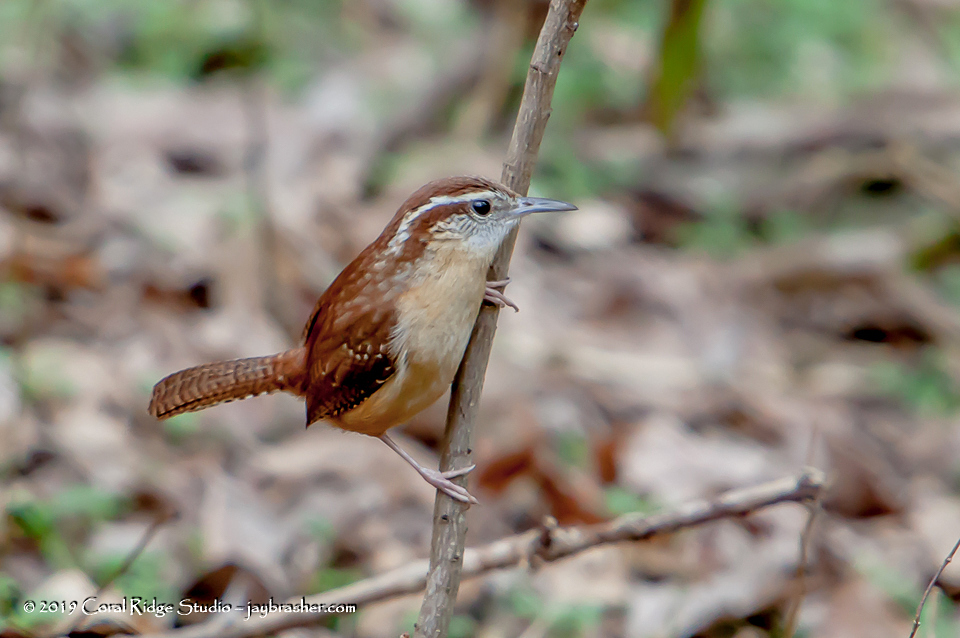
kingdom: Animalia
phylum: Chordata
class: Aves
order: Passeriformes
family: Troglodytidae
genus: Thryothorus
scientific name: Thryothorus ludovicianus
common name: Carolina wren
